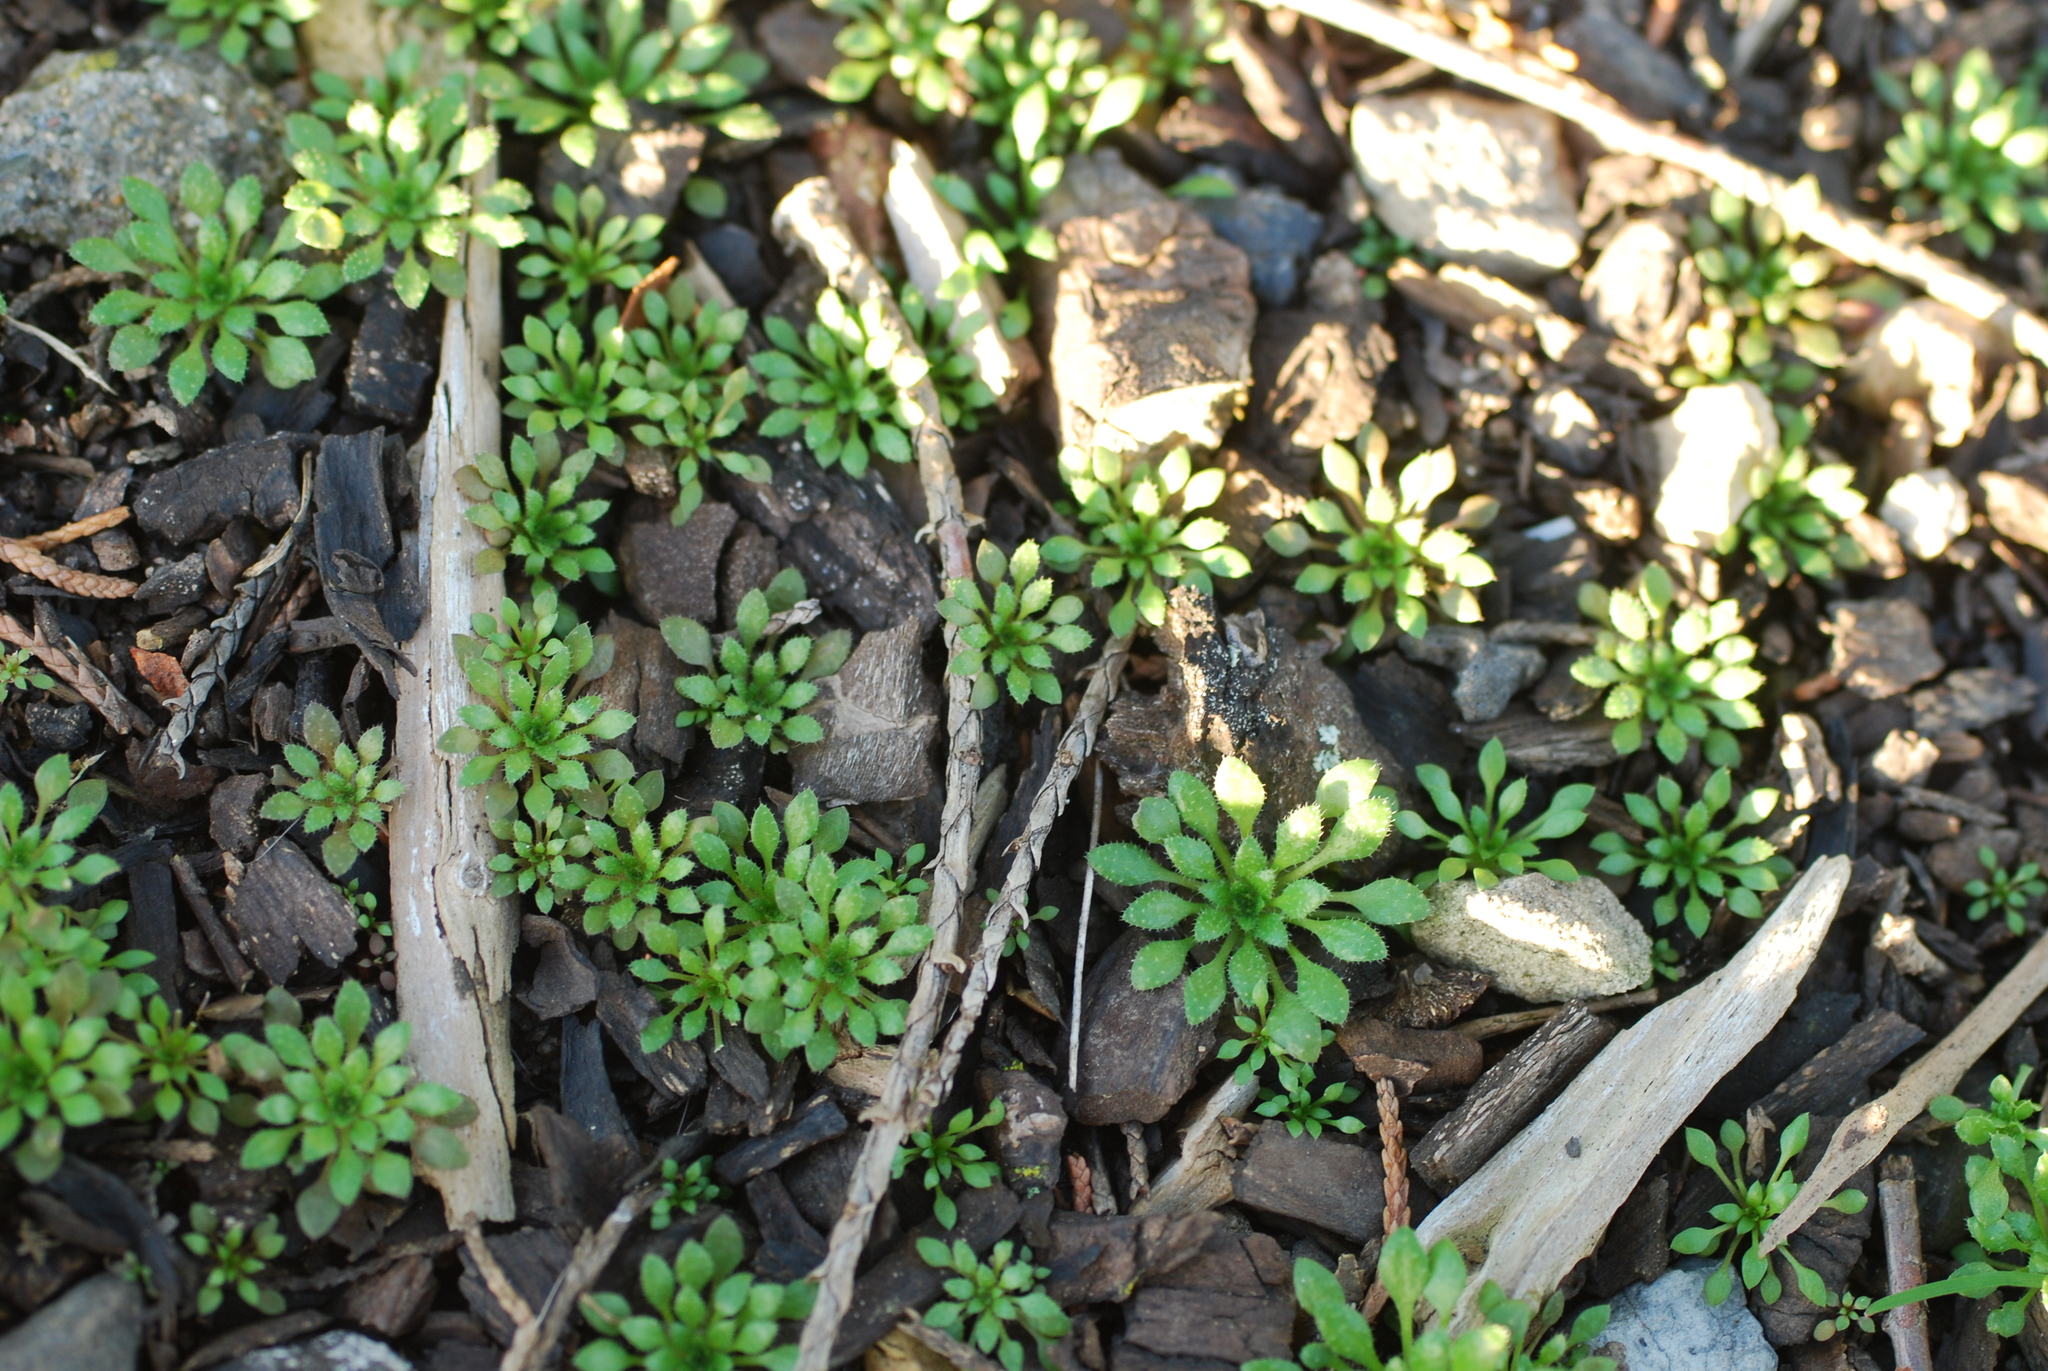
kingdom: Plantae
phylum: Tracheophyta
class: Magnoliopsida
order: Brassicales
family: Brassicaceae
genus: Draba
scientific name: Draba verna
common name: Spring draba
